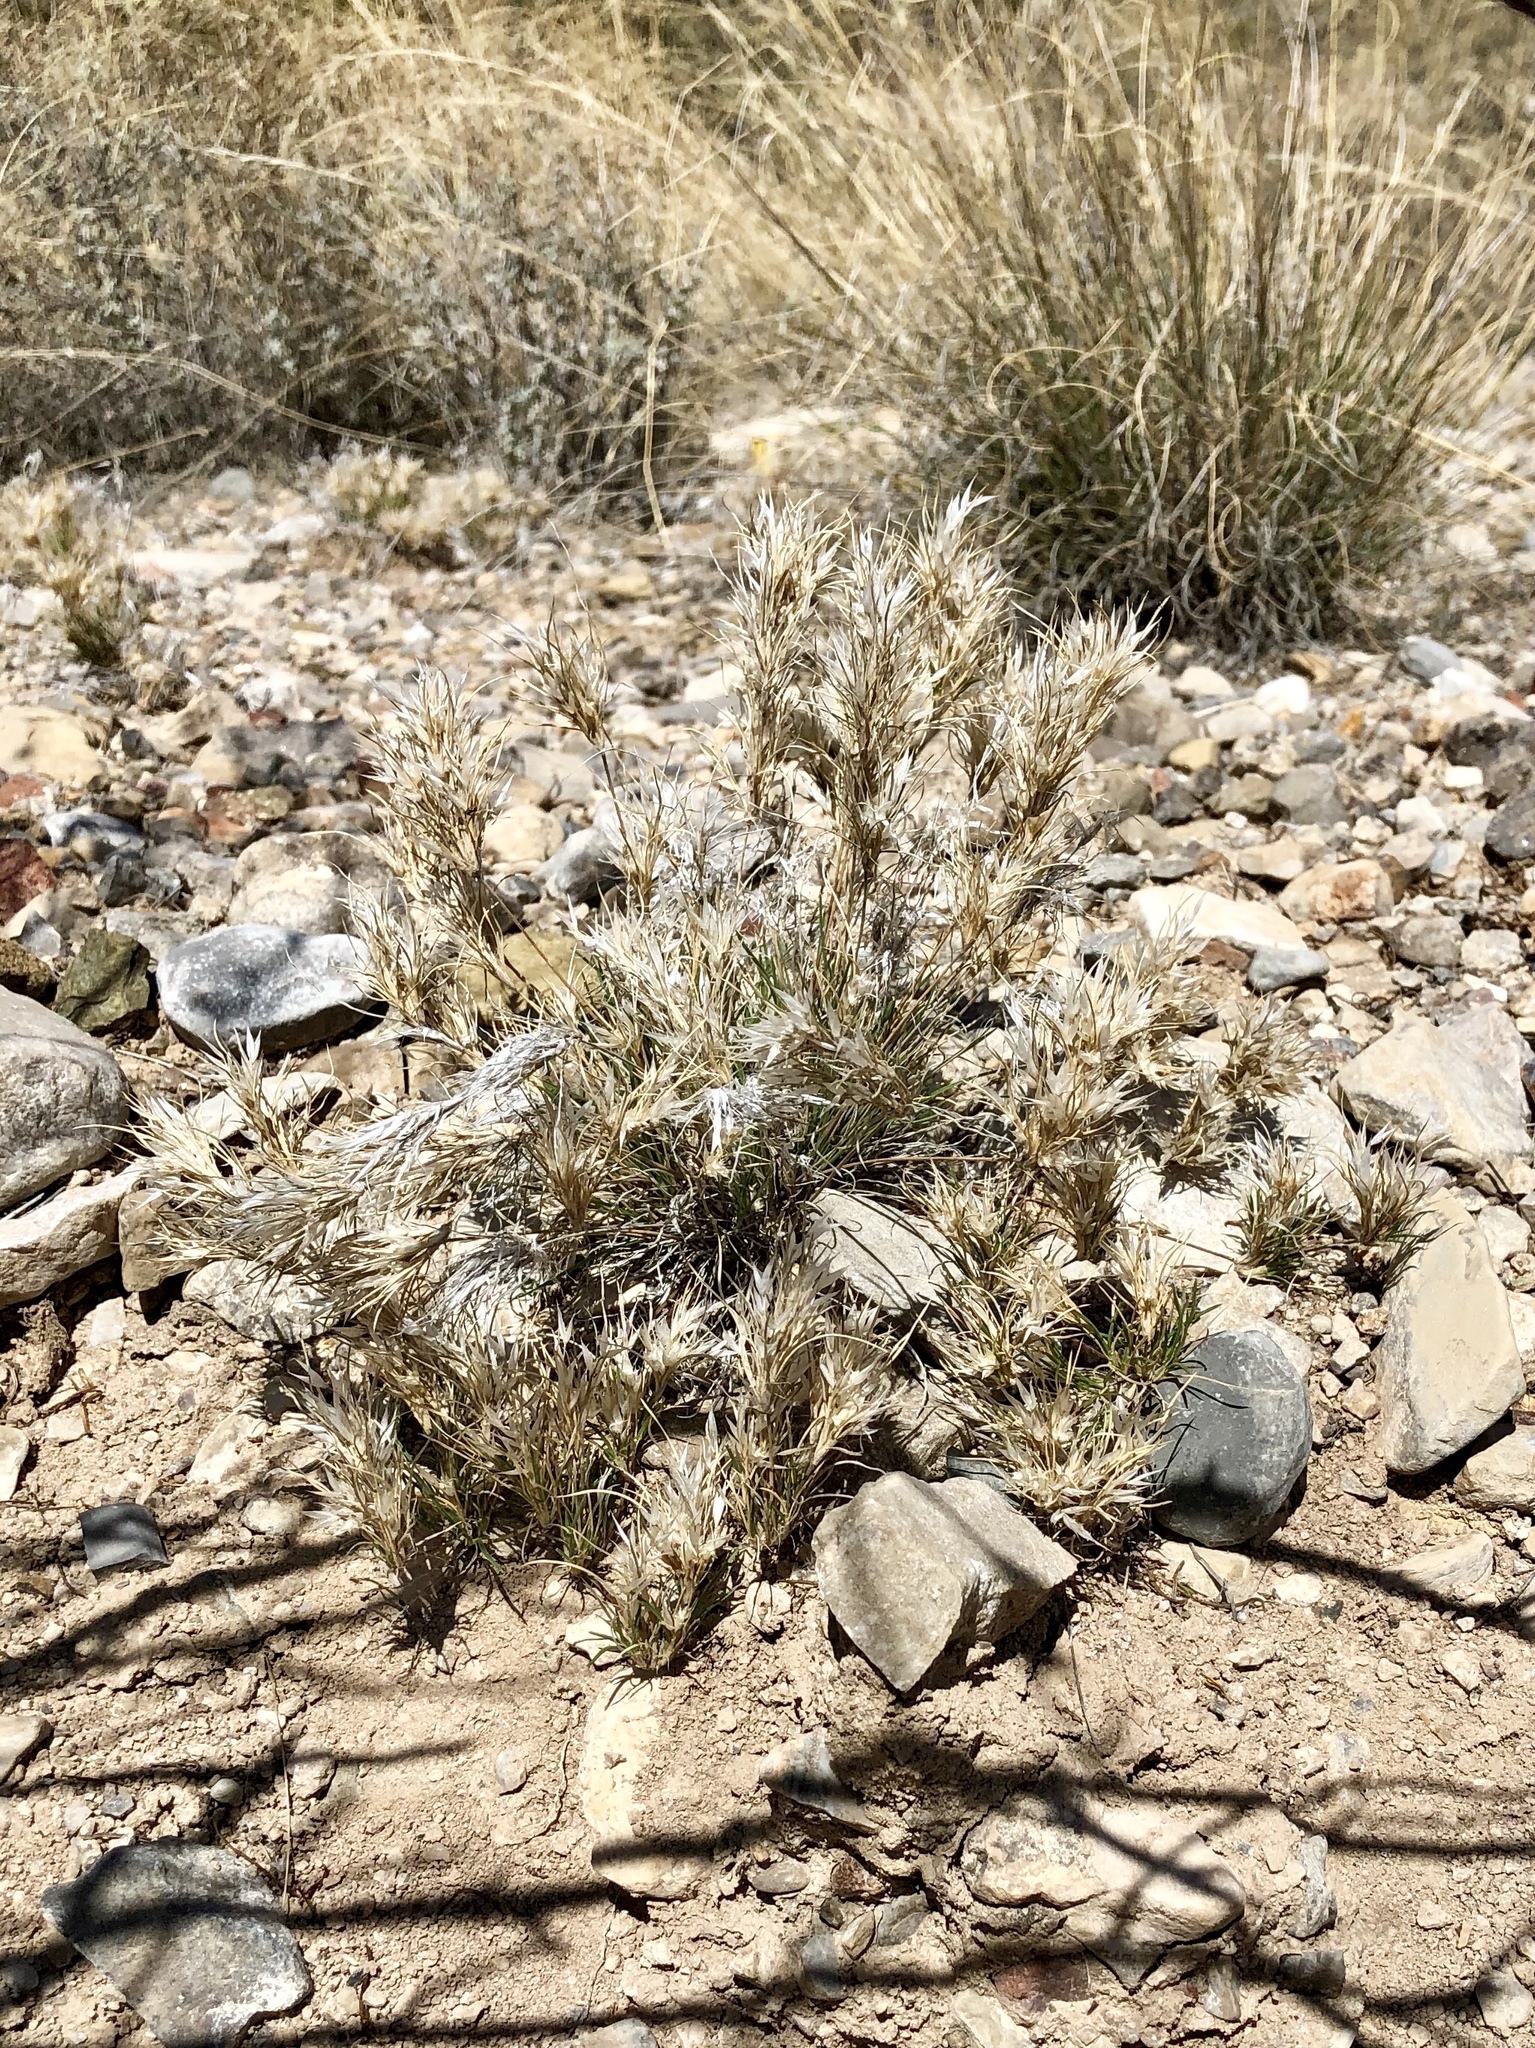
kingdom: Plantae
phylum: Tracheophyta
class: Liliopsida
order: Poales
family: Poaceae
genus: Dasyochloa
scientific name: Dasyochloa pulchella
